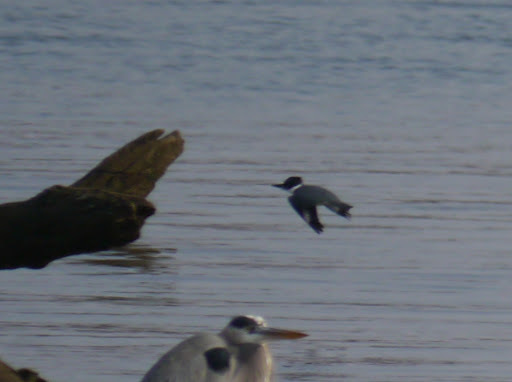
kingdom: Animalia
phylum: Chordata
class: Aves
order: Coraciiformes
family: Alcedinidae
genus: Megaceryle
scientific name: Megaceryle alcyon
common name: Belted kingfisher
